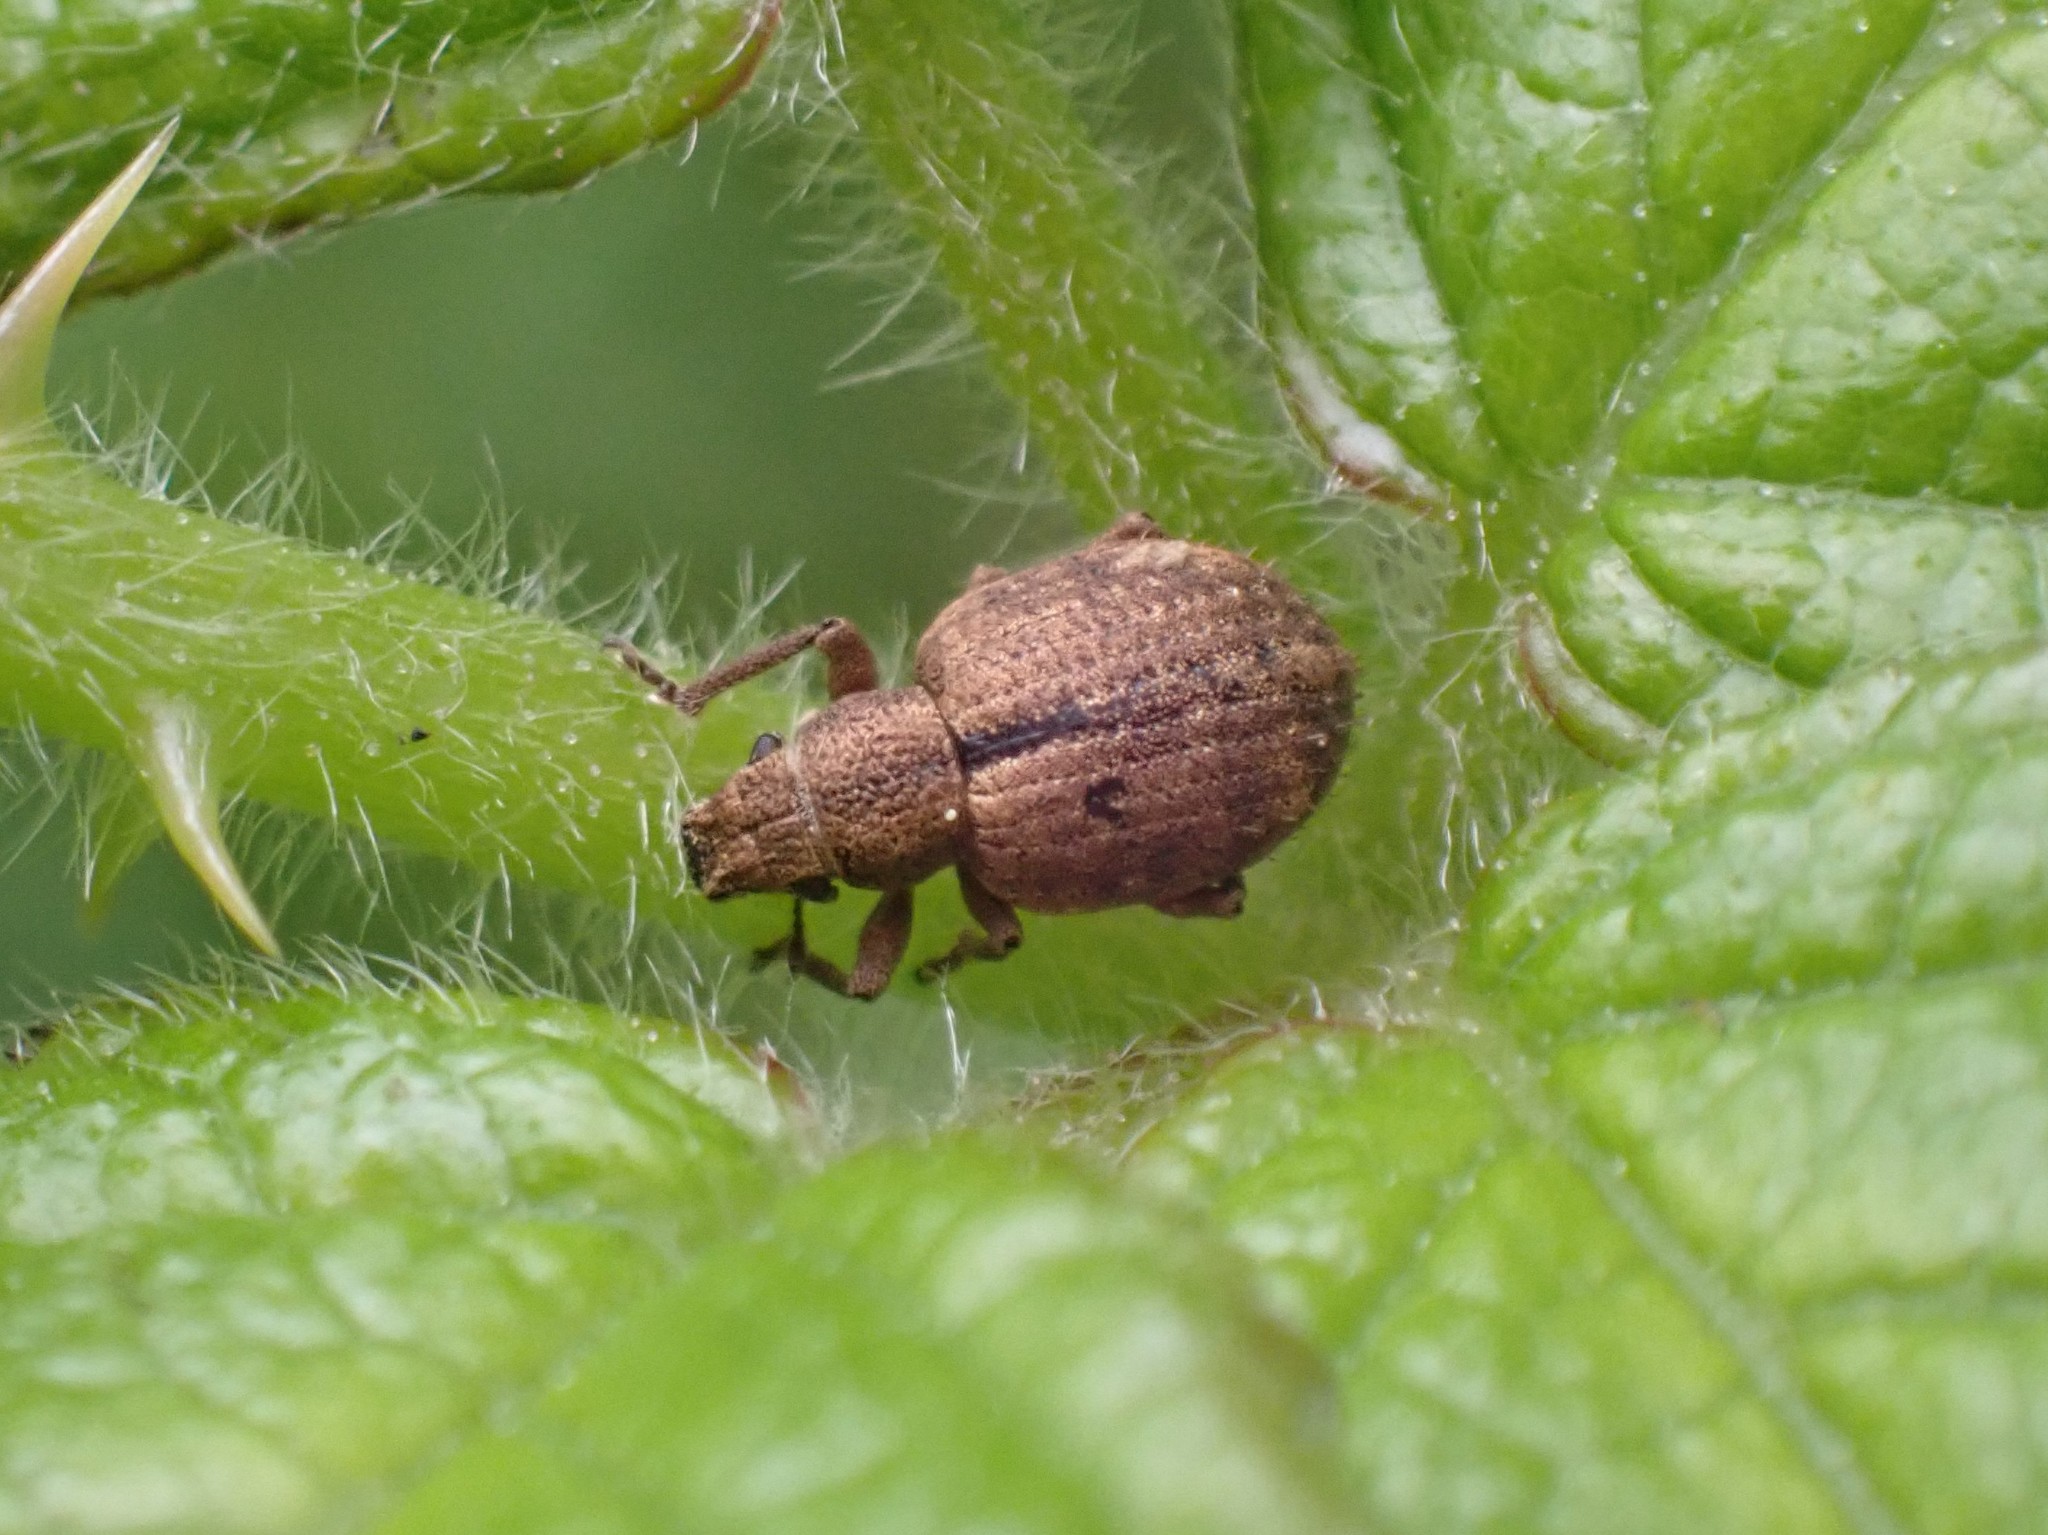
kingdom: Animalia
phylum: Arthropoda
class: Insecta
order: Coleoptera
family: Curculionidae
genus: Strophosoma
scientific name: Strophosoma melanogrammum
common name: Weevil
